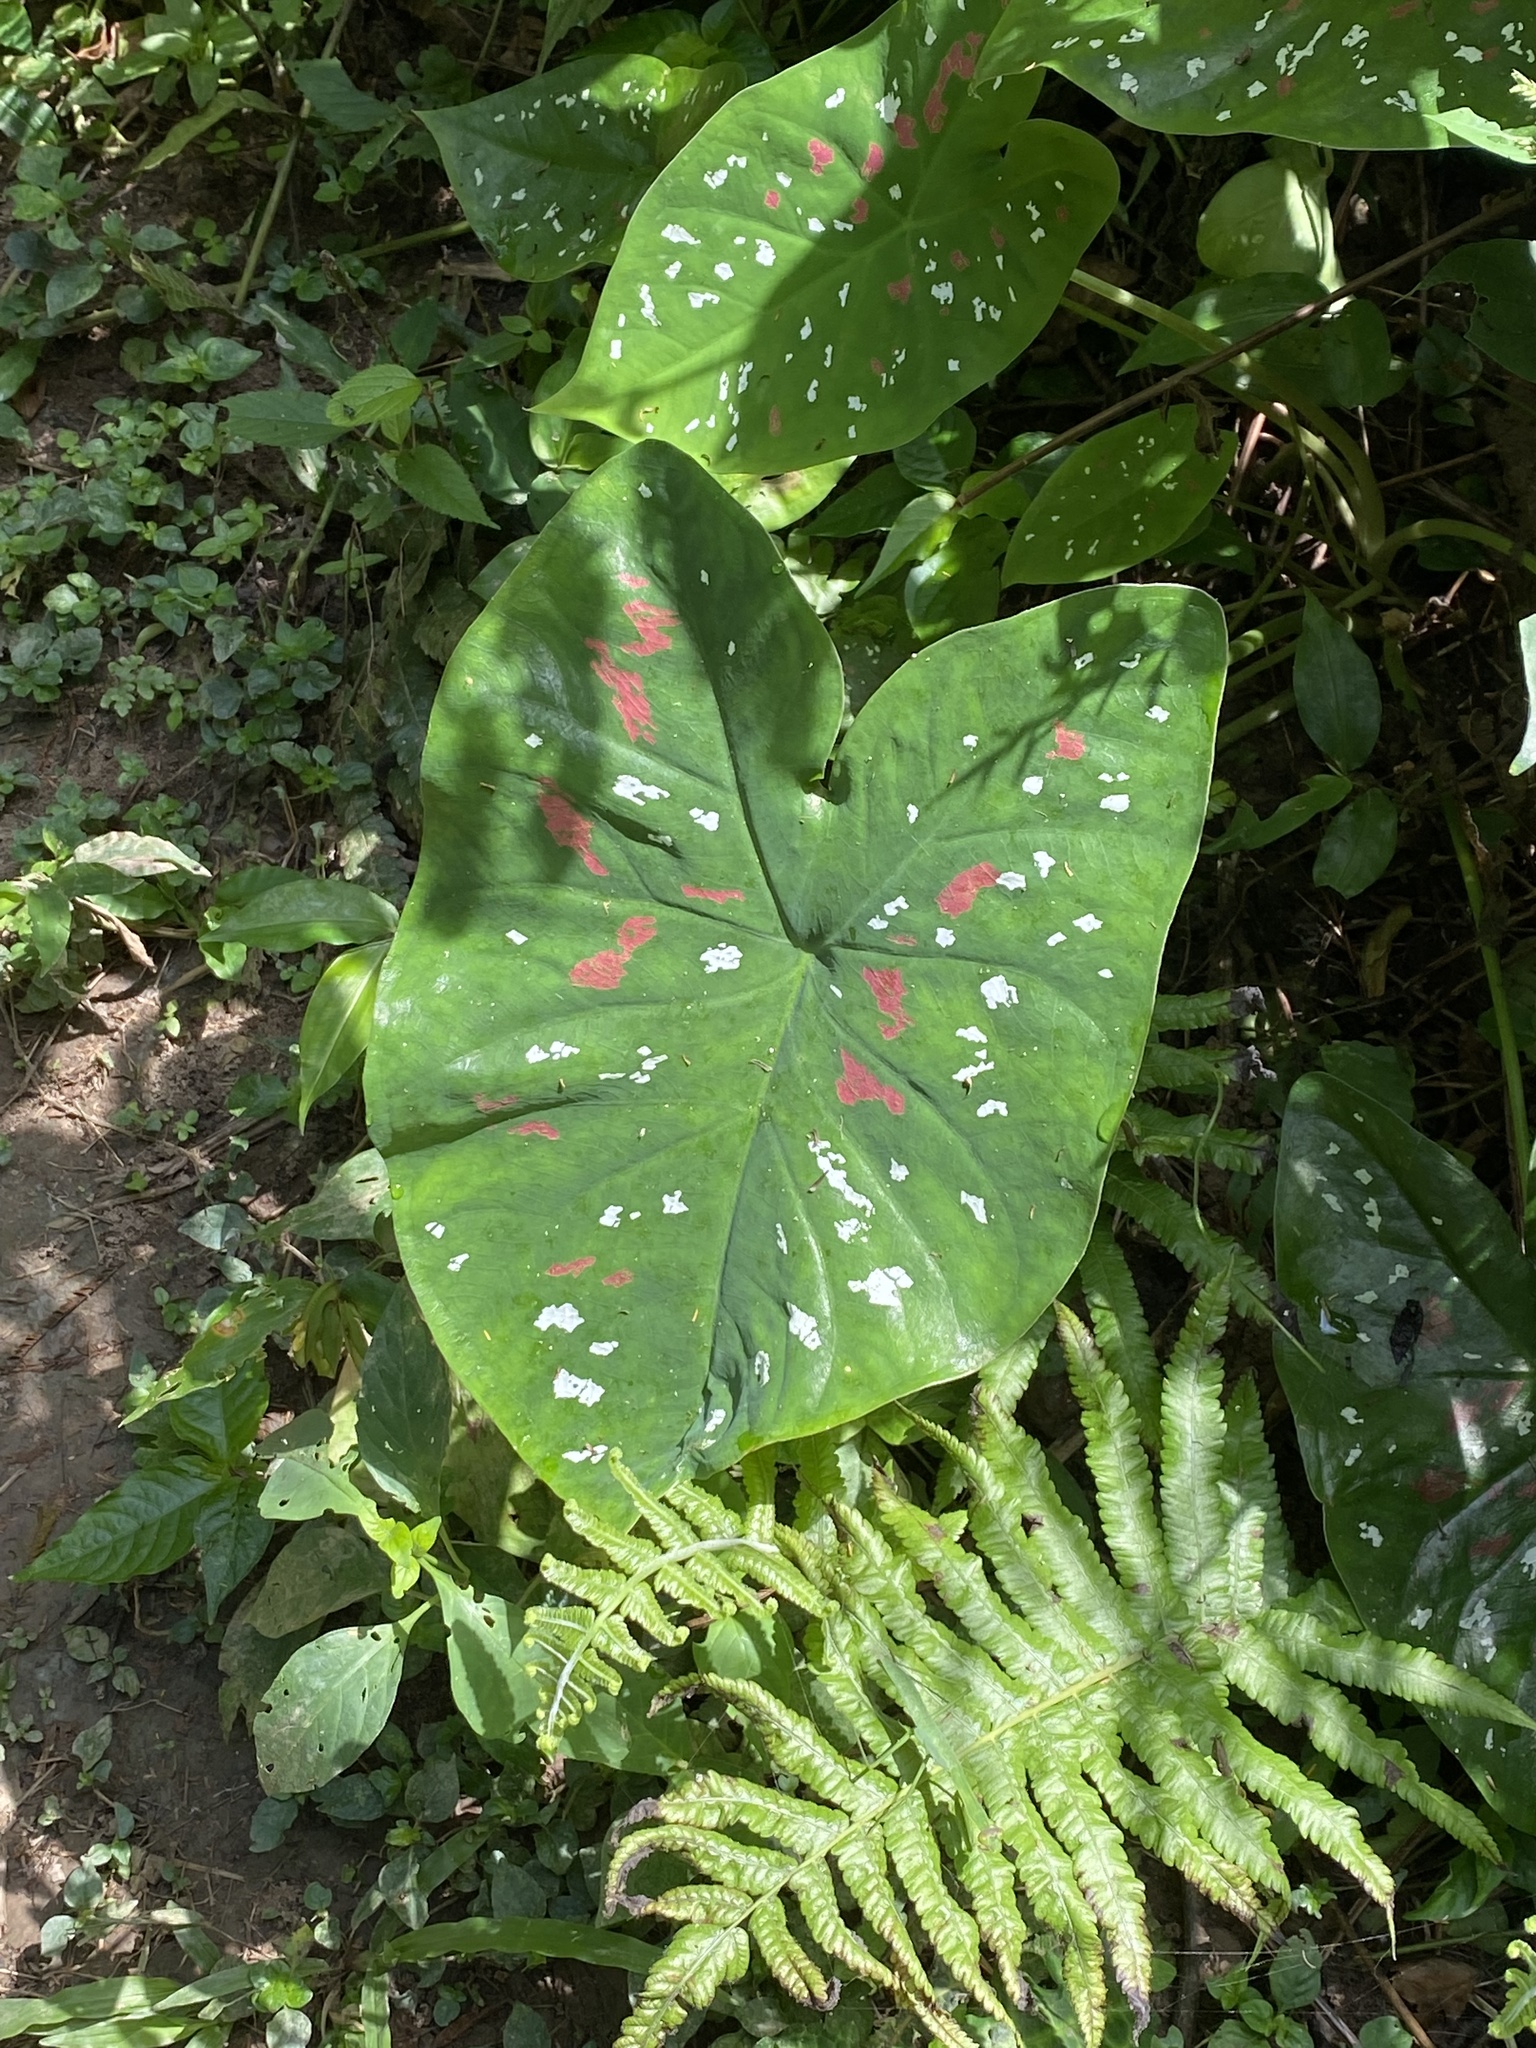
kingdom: Plantae
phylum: Tracheophyta
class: Liliopsida
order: Alismatales
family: Araceae
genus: Caladium
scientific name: Caladium bicolor
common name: Artist's pallet
